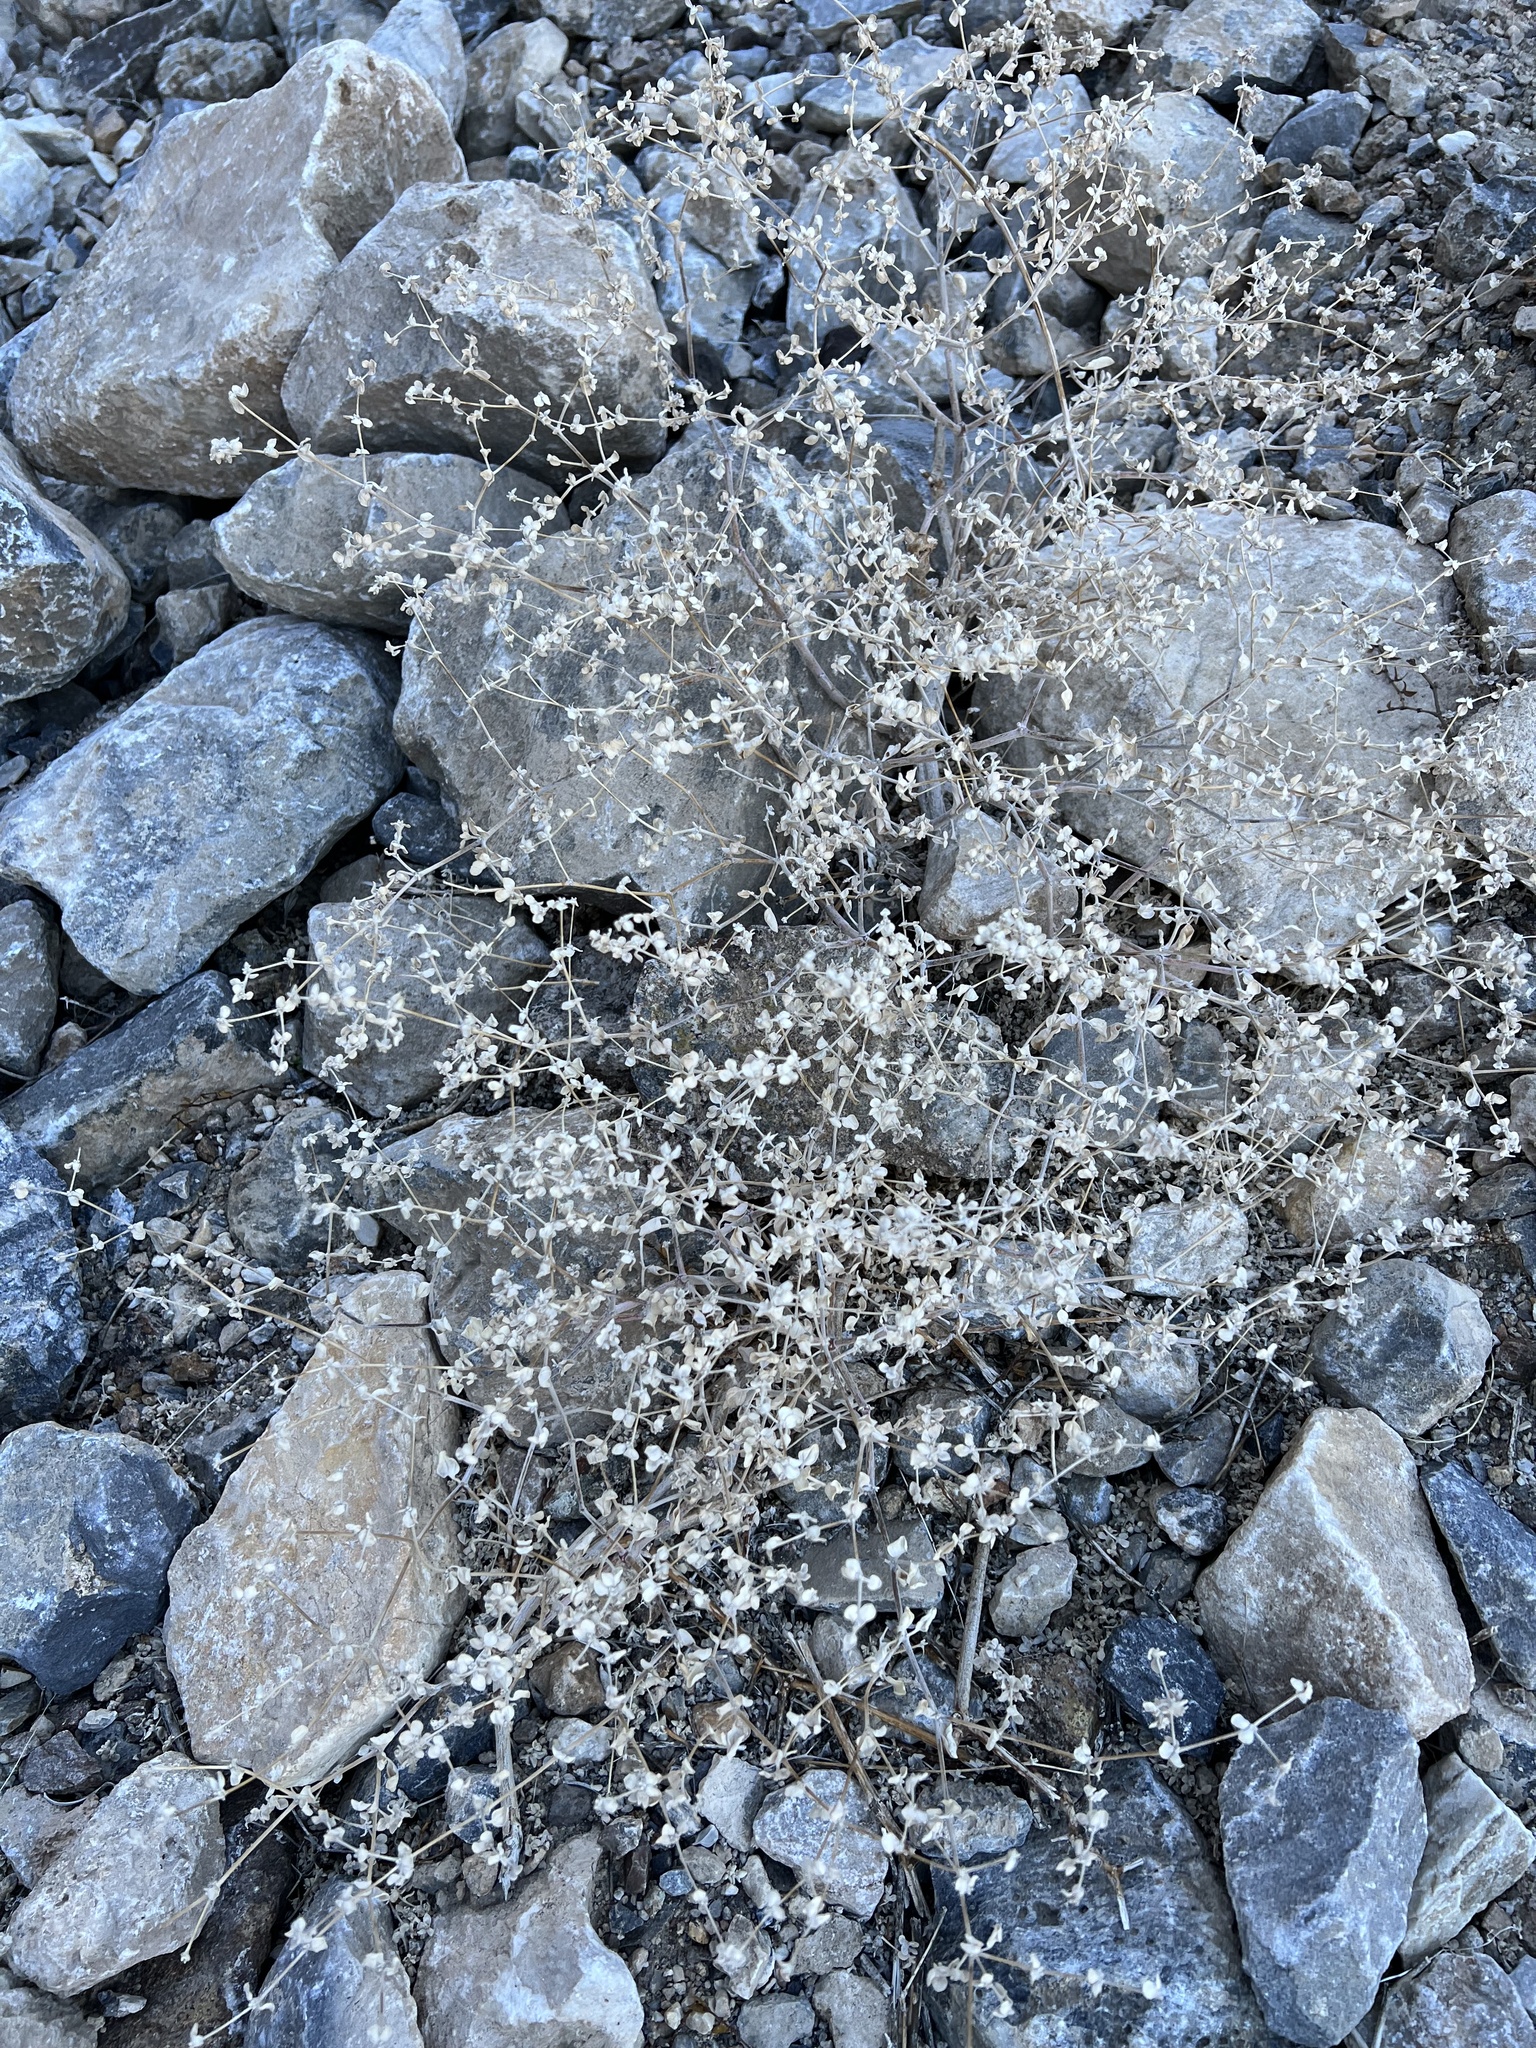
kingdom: Plantae
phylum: Tracheophyta
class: Magnoliopsida
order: Caryophyllales
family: Amaranthaceae
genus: Tidestromia
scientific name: Tidestromia suffruticosa
